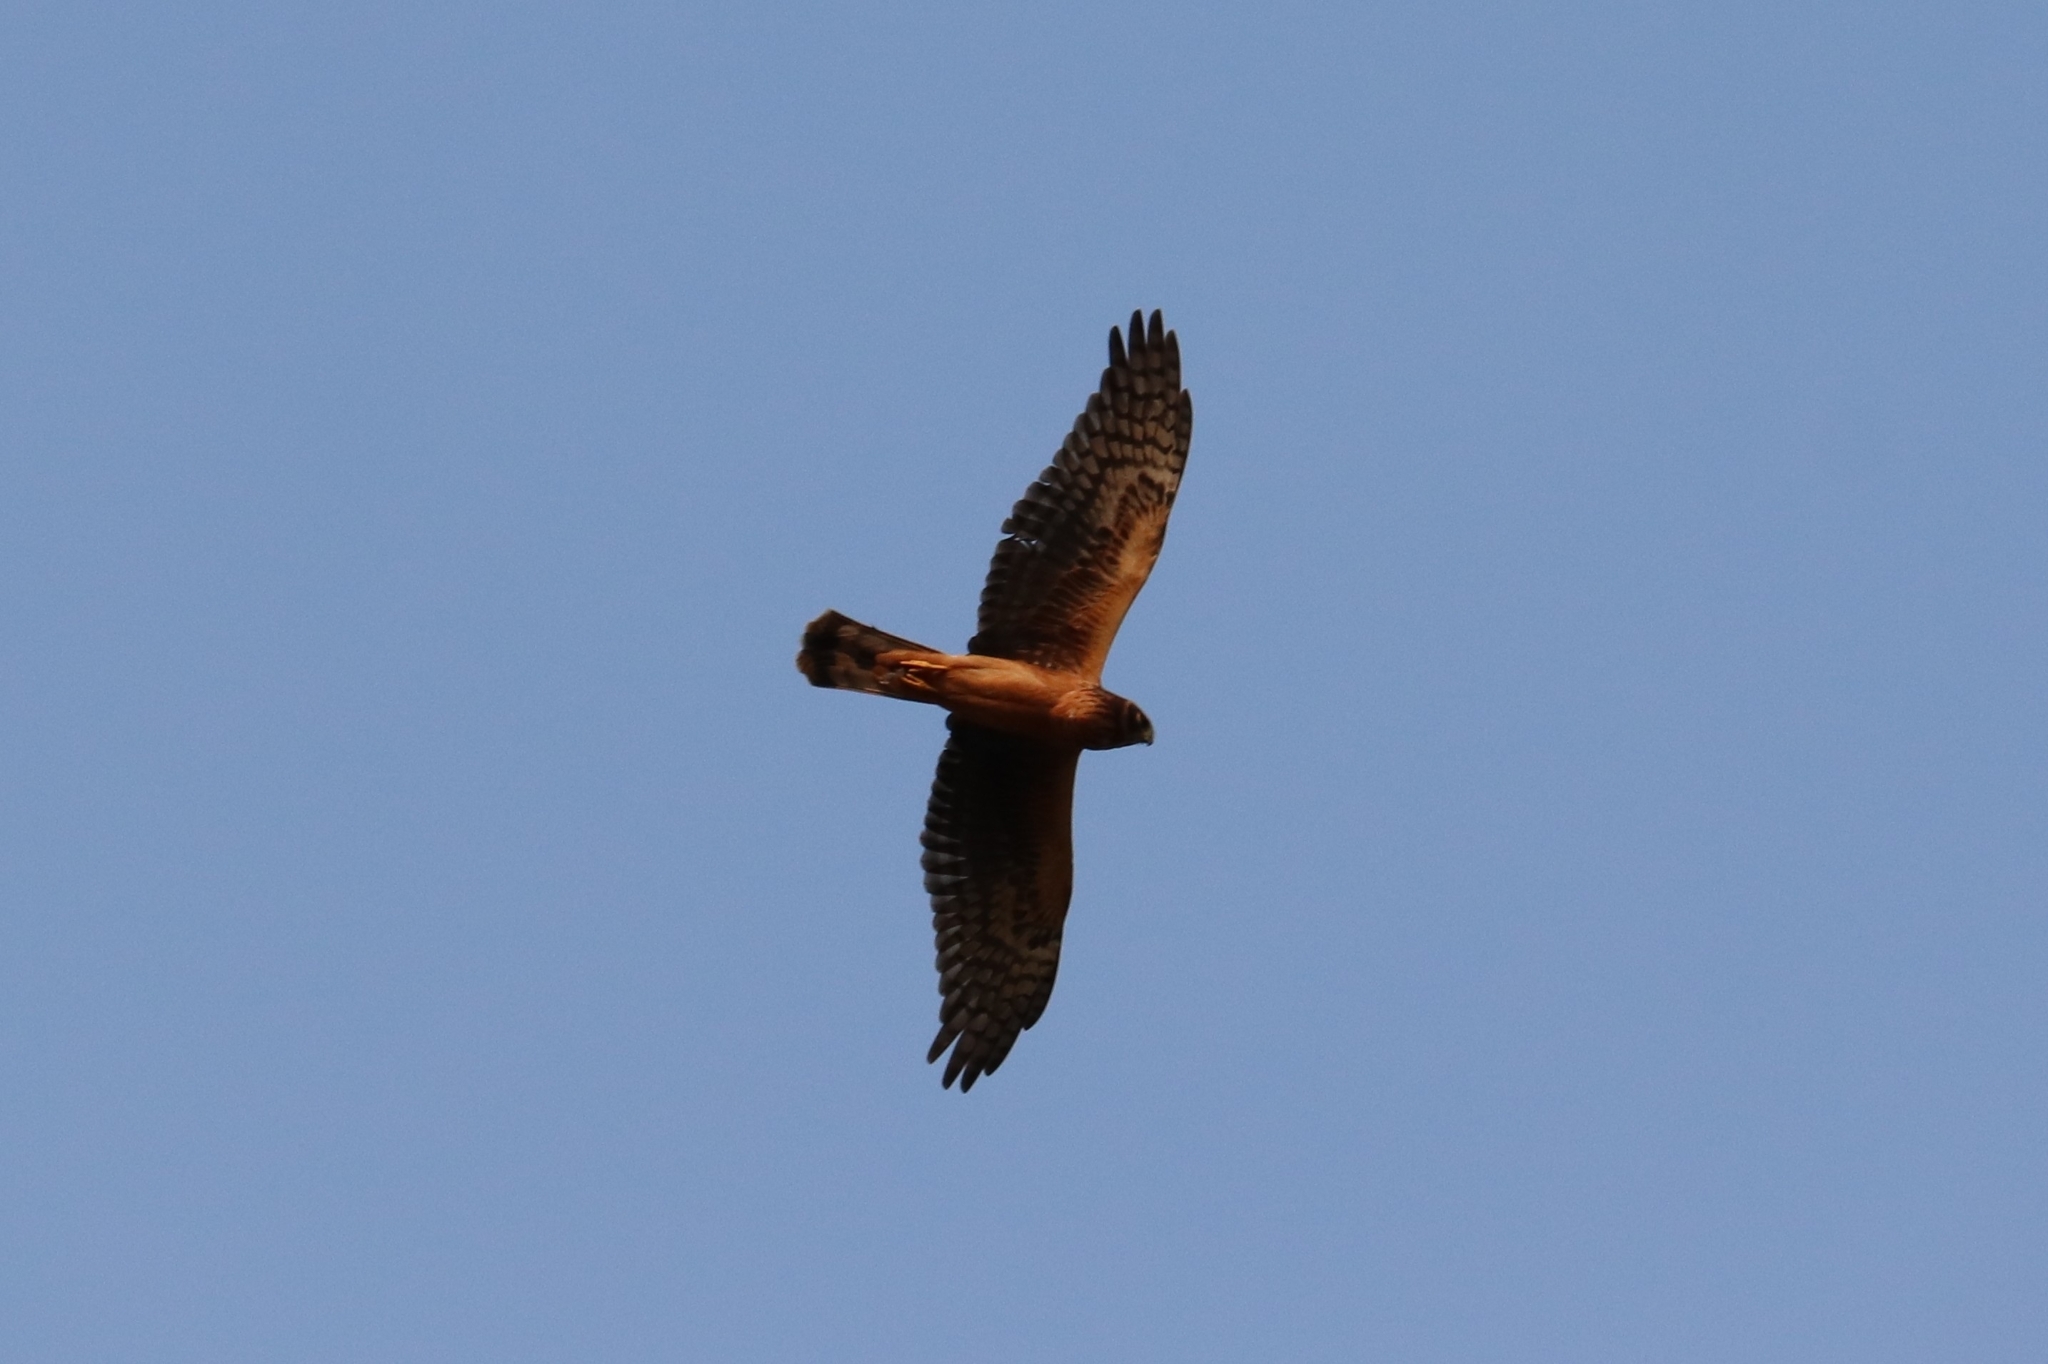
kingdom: Animalia
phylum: Chordata
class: Aves
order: Accipitriformes
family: Accipitridae
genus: Circus
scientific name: Circus cyaneus
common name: Hen harrier
